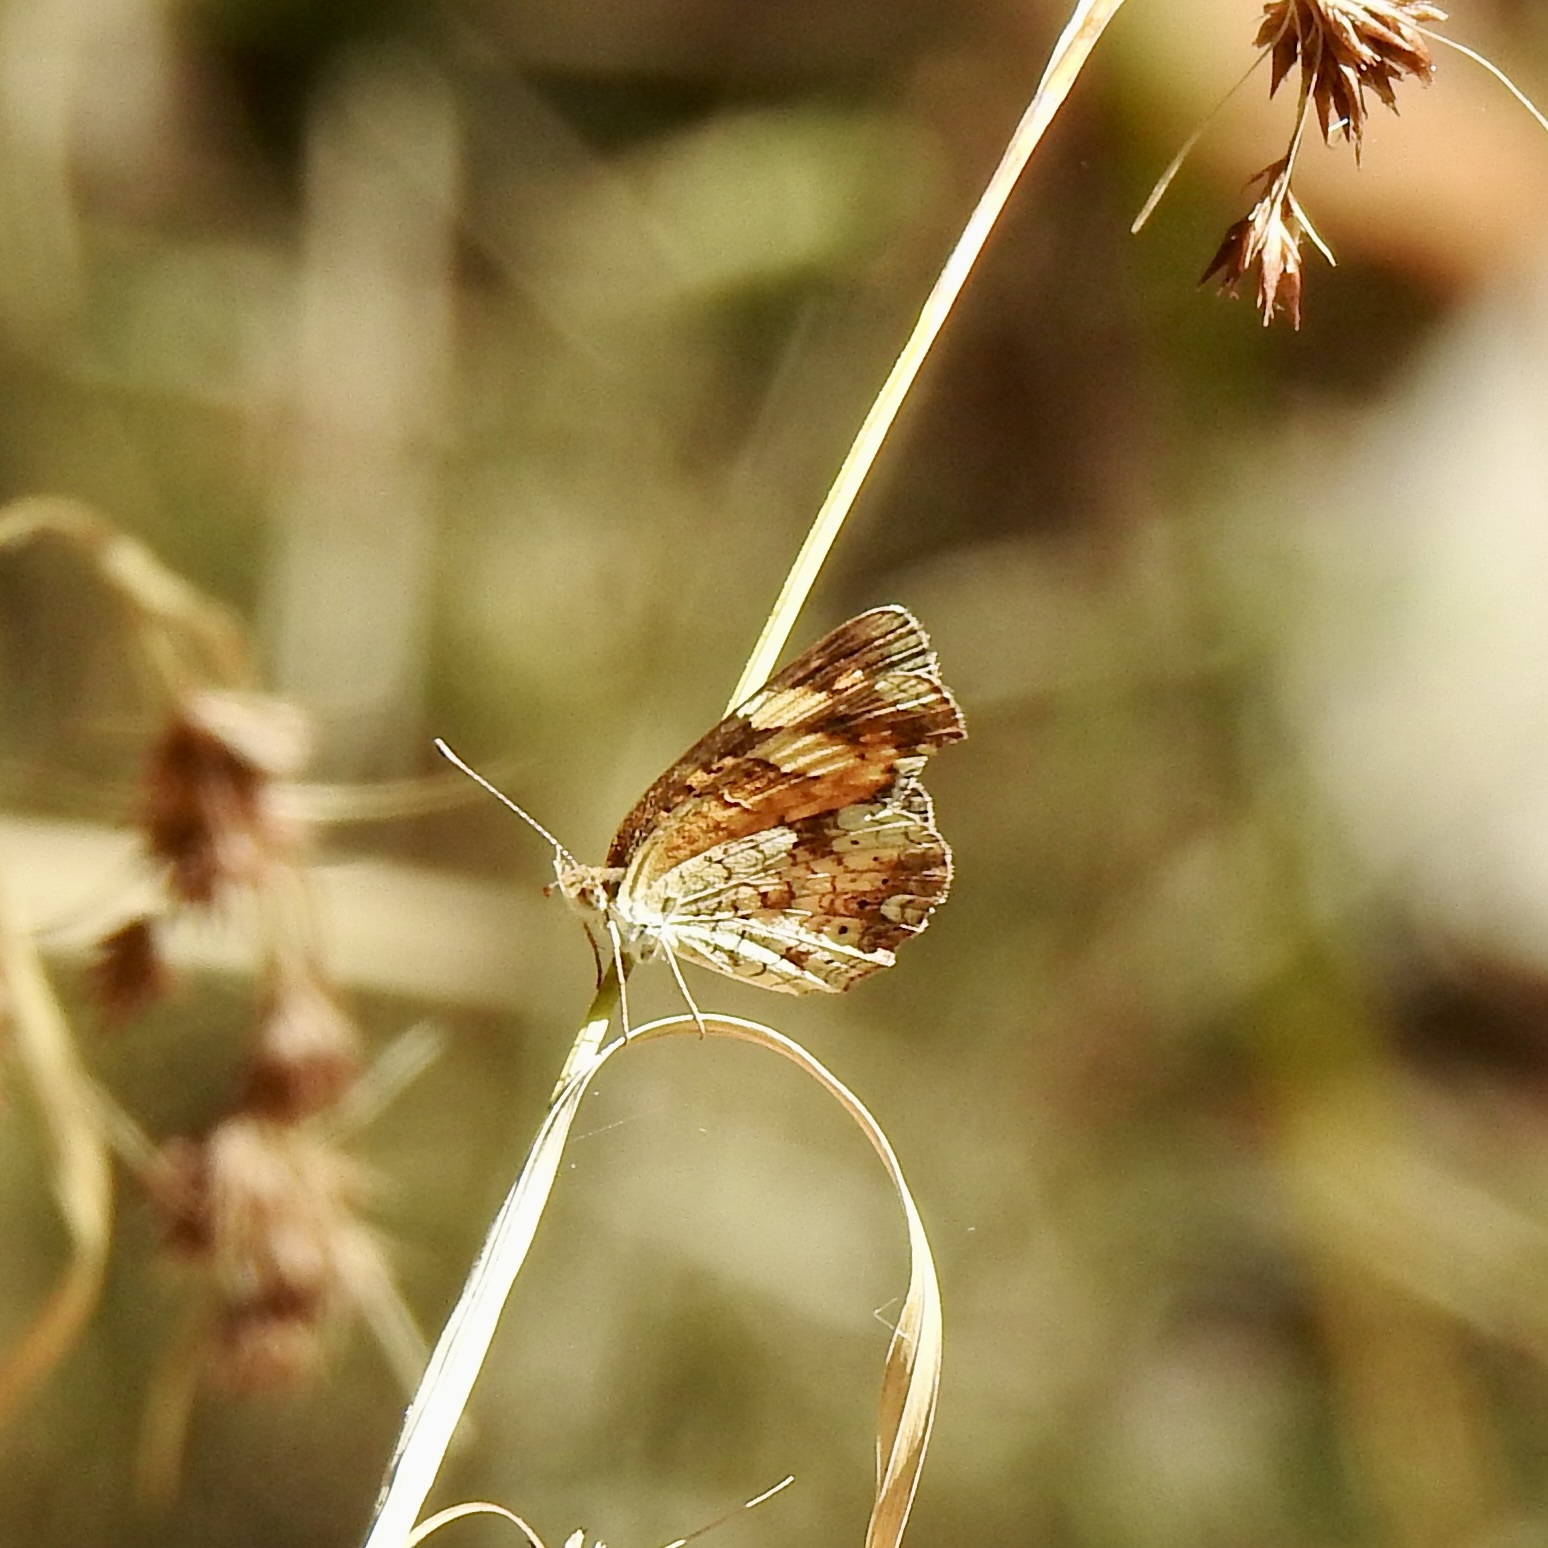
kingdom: Animalia
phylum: Arthropoda
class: Insecta
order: Lepidoptera
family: Nymphalidae
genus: Phyciodes
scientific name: Phyciodes tharos
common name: Pearl crescent
